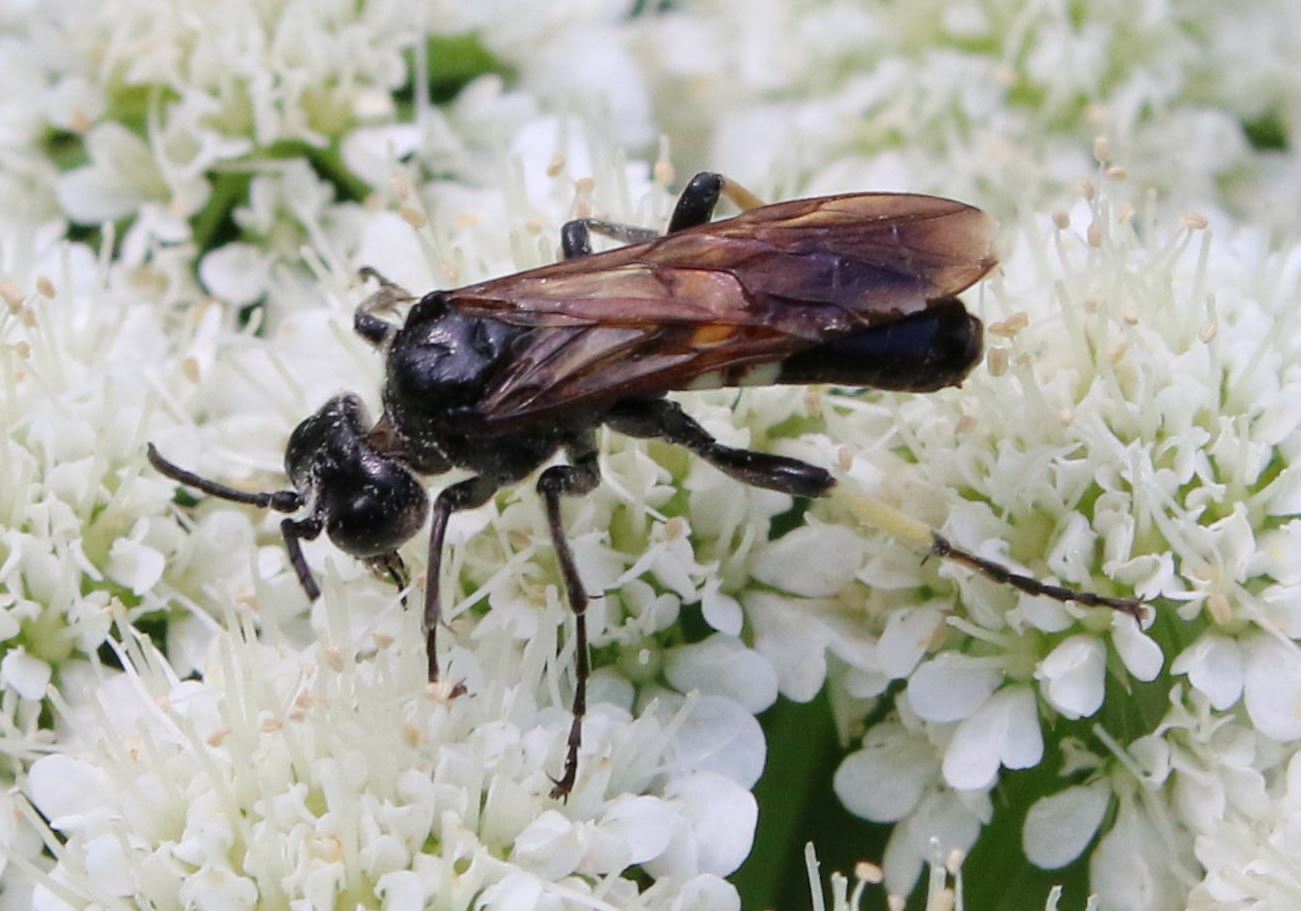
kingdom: Animalia
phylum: Arthropoda
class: Insecta
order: Hymenoptera
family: Tenthredinidae
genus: Tenthredo
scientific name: Tenthredo bifasciata
